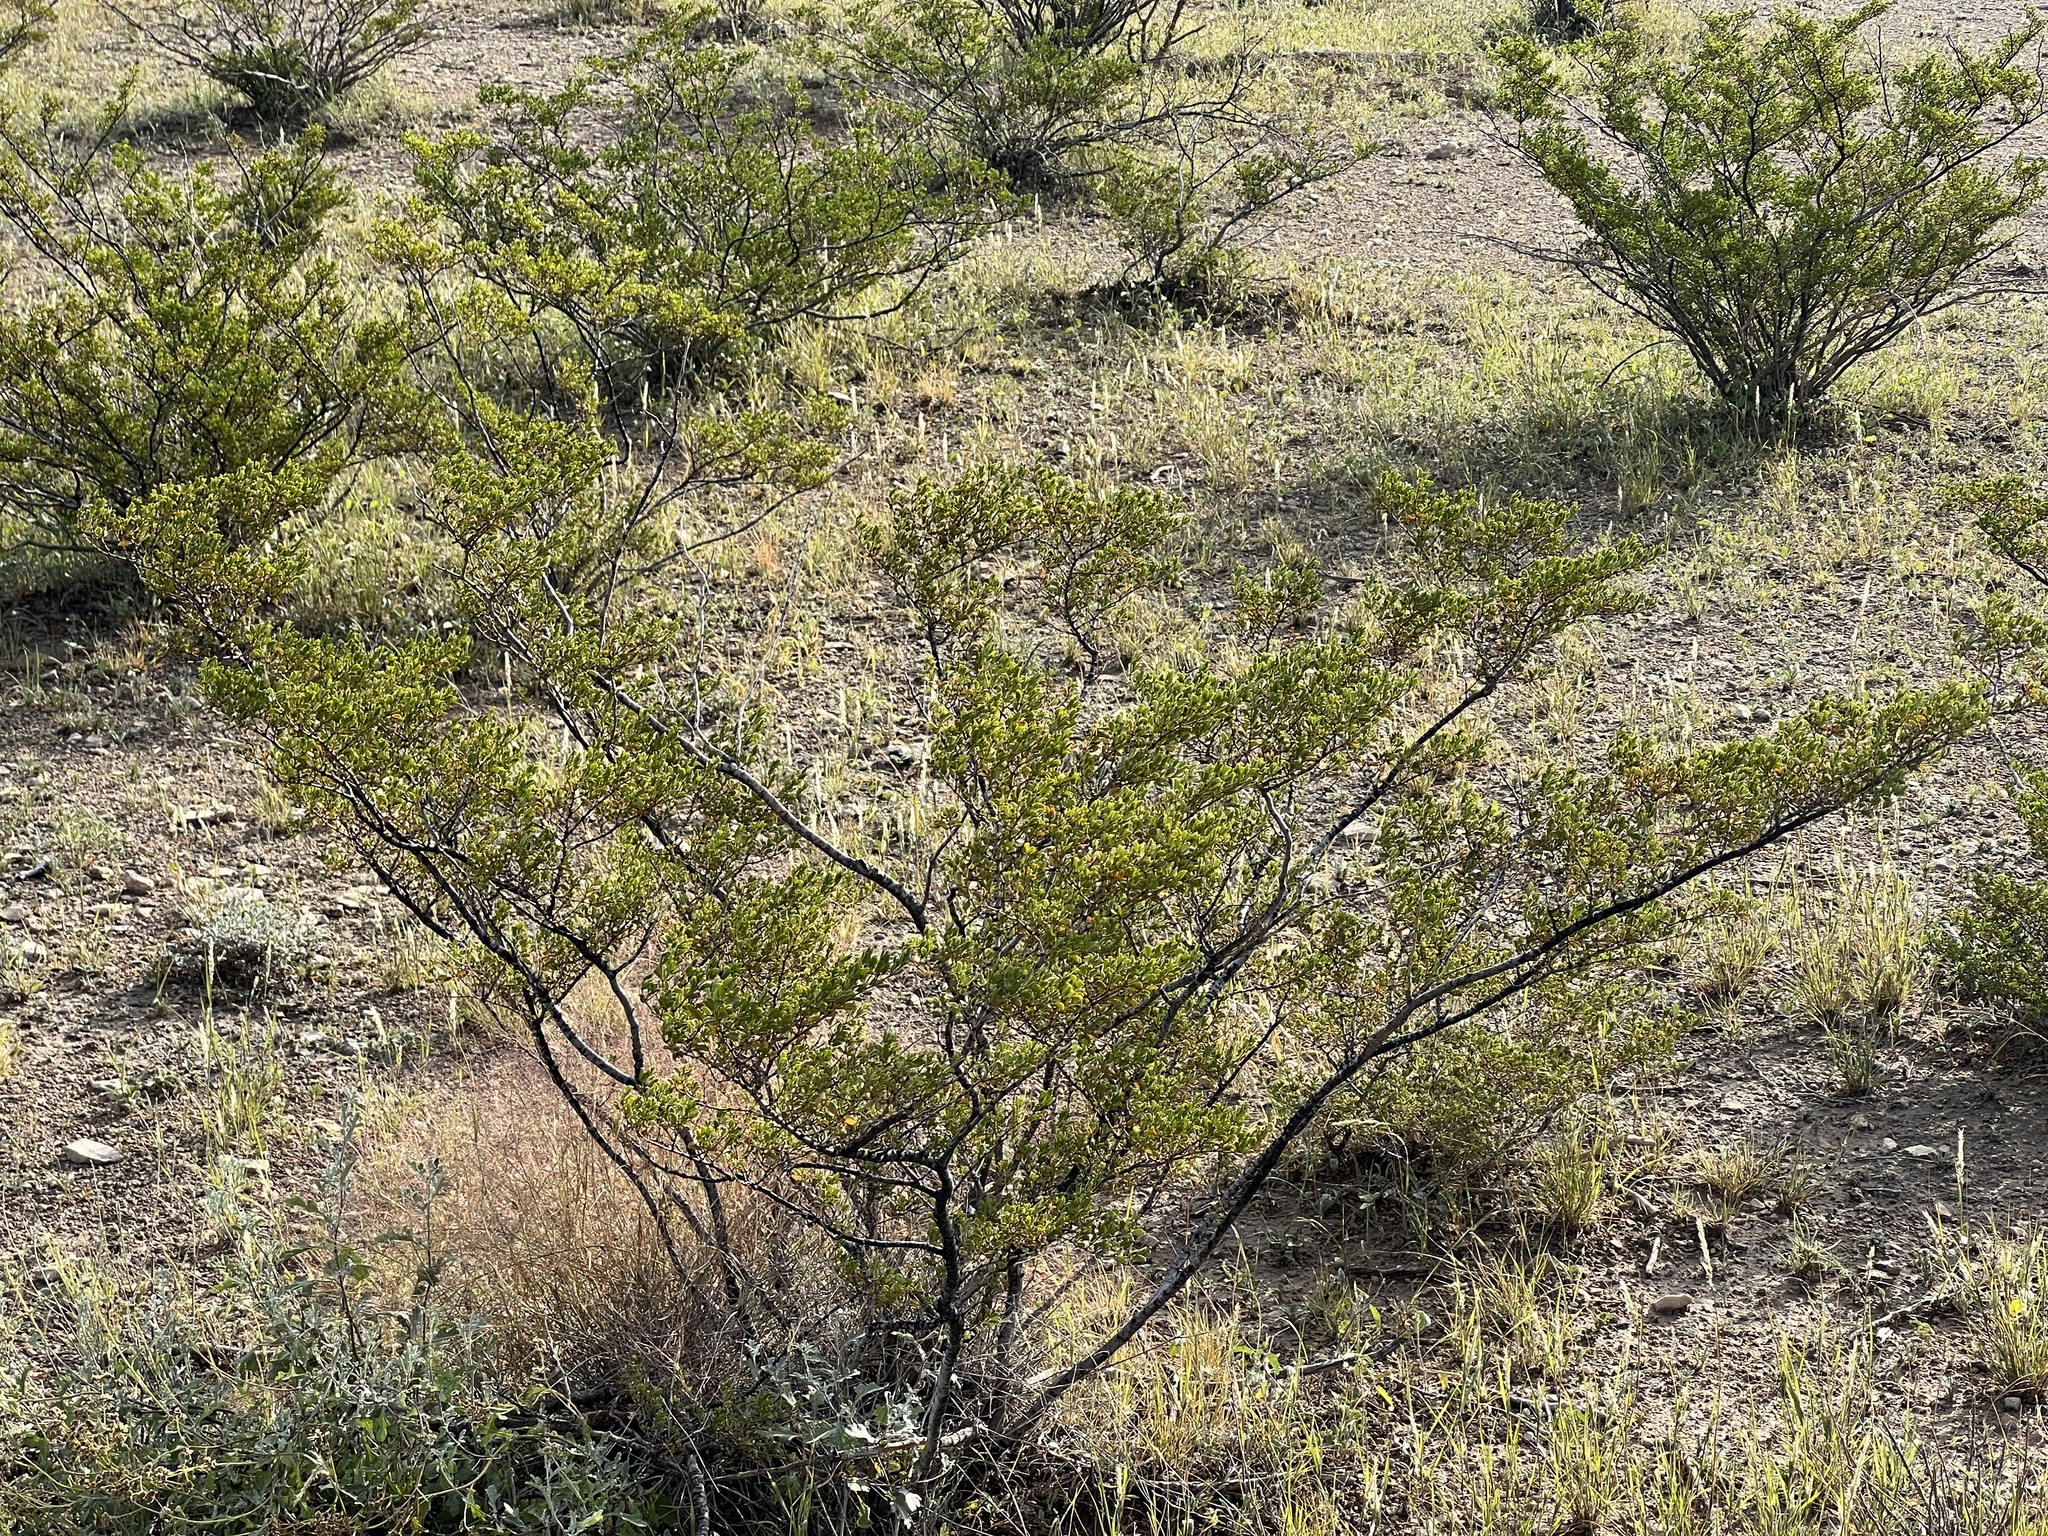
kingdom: Plantae
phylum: Tracheophyta
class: Magnoliopsida
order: Zygophyllales
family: Zygophyllaceae
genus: Larrea
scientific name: Larrea tridentata
